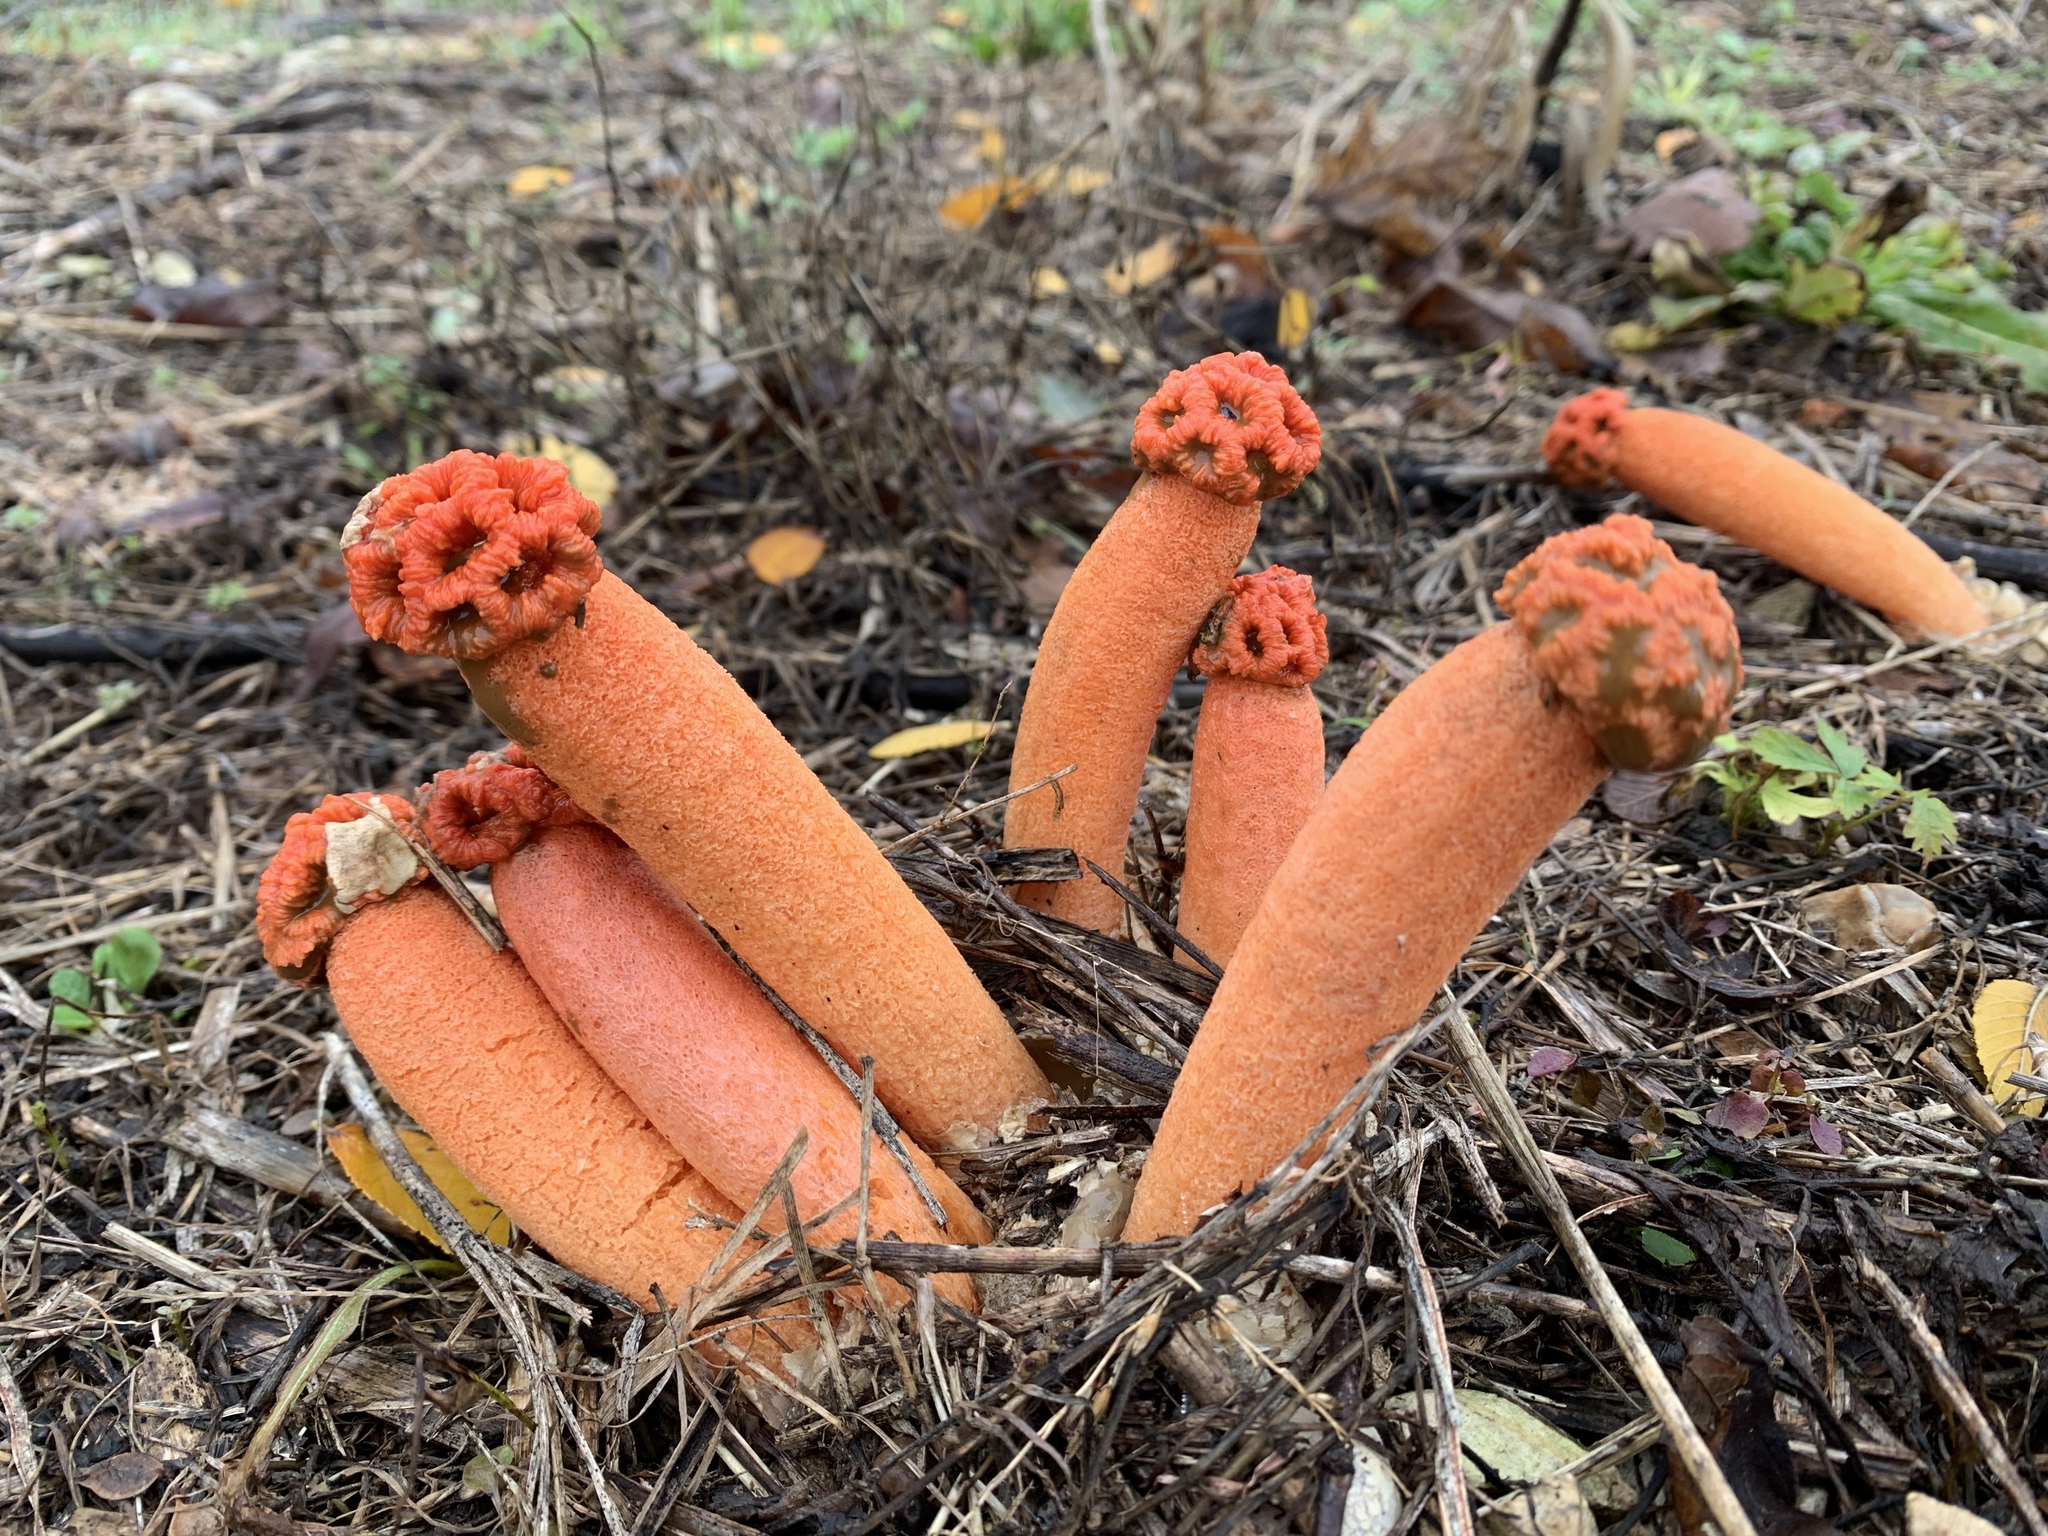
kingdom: Fungi
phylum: Basidiomycota
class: Agaricomycetes
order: Phallales
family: Phallaceae
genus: Lysurus
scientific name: Lysurus periphragmoides
